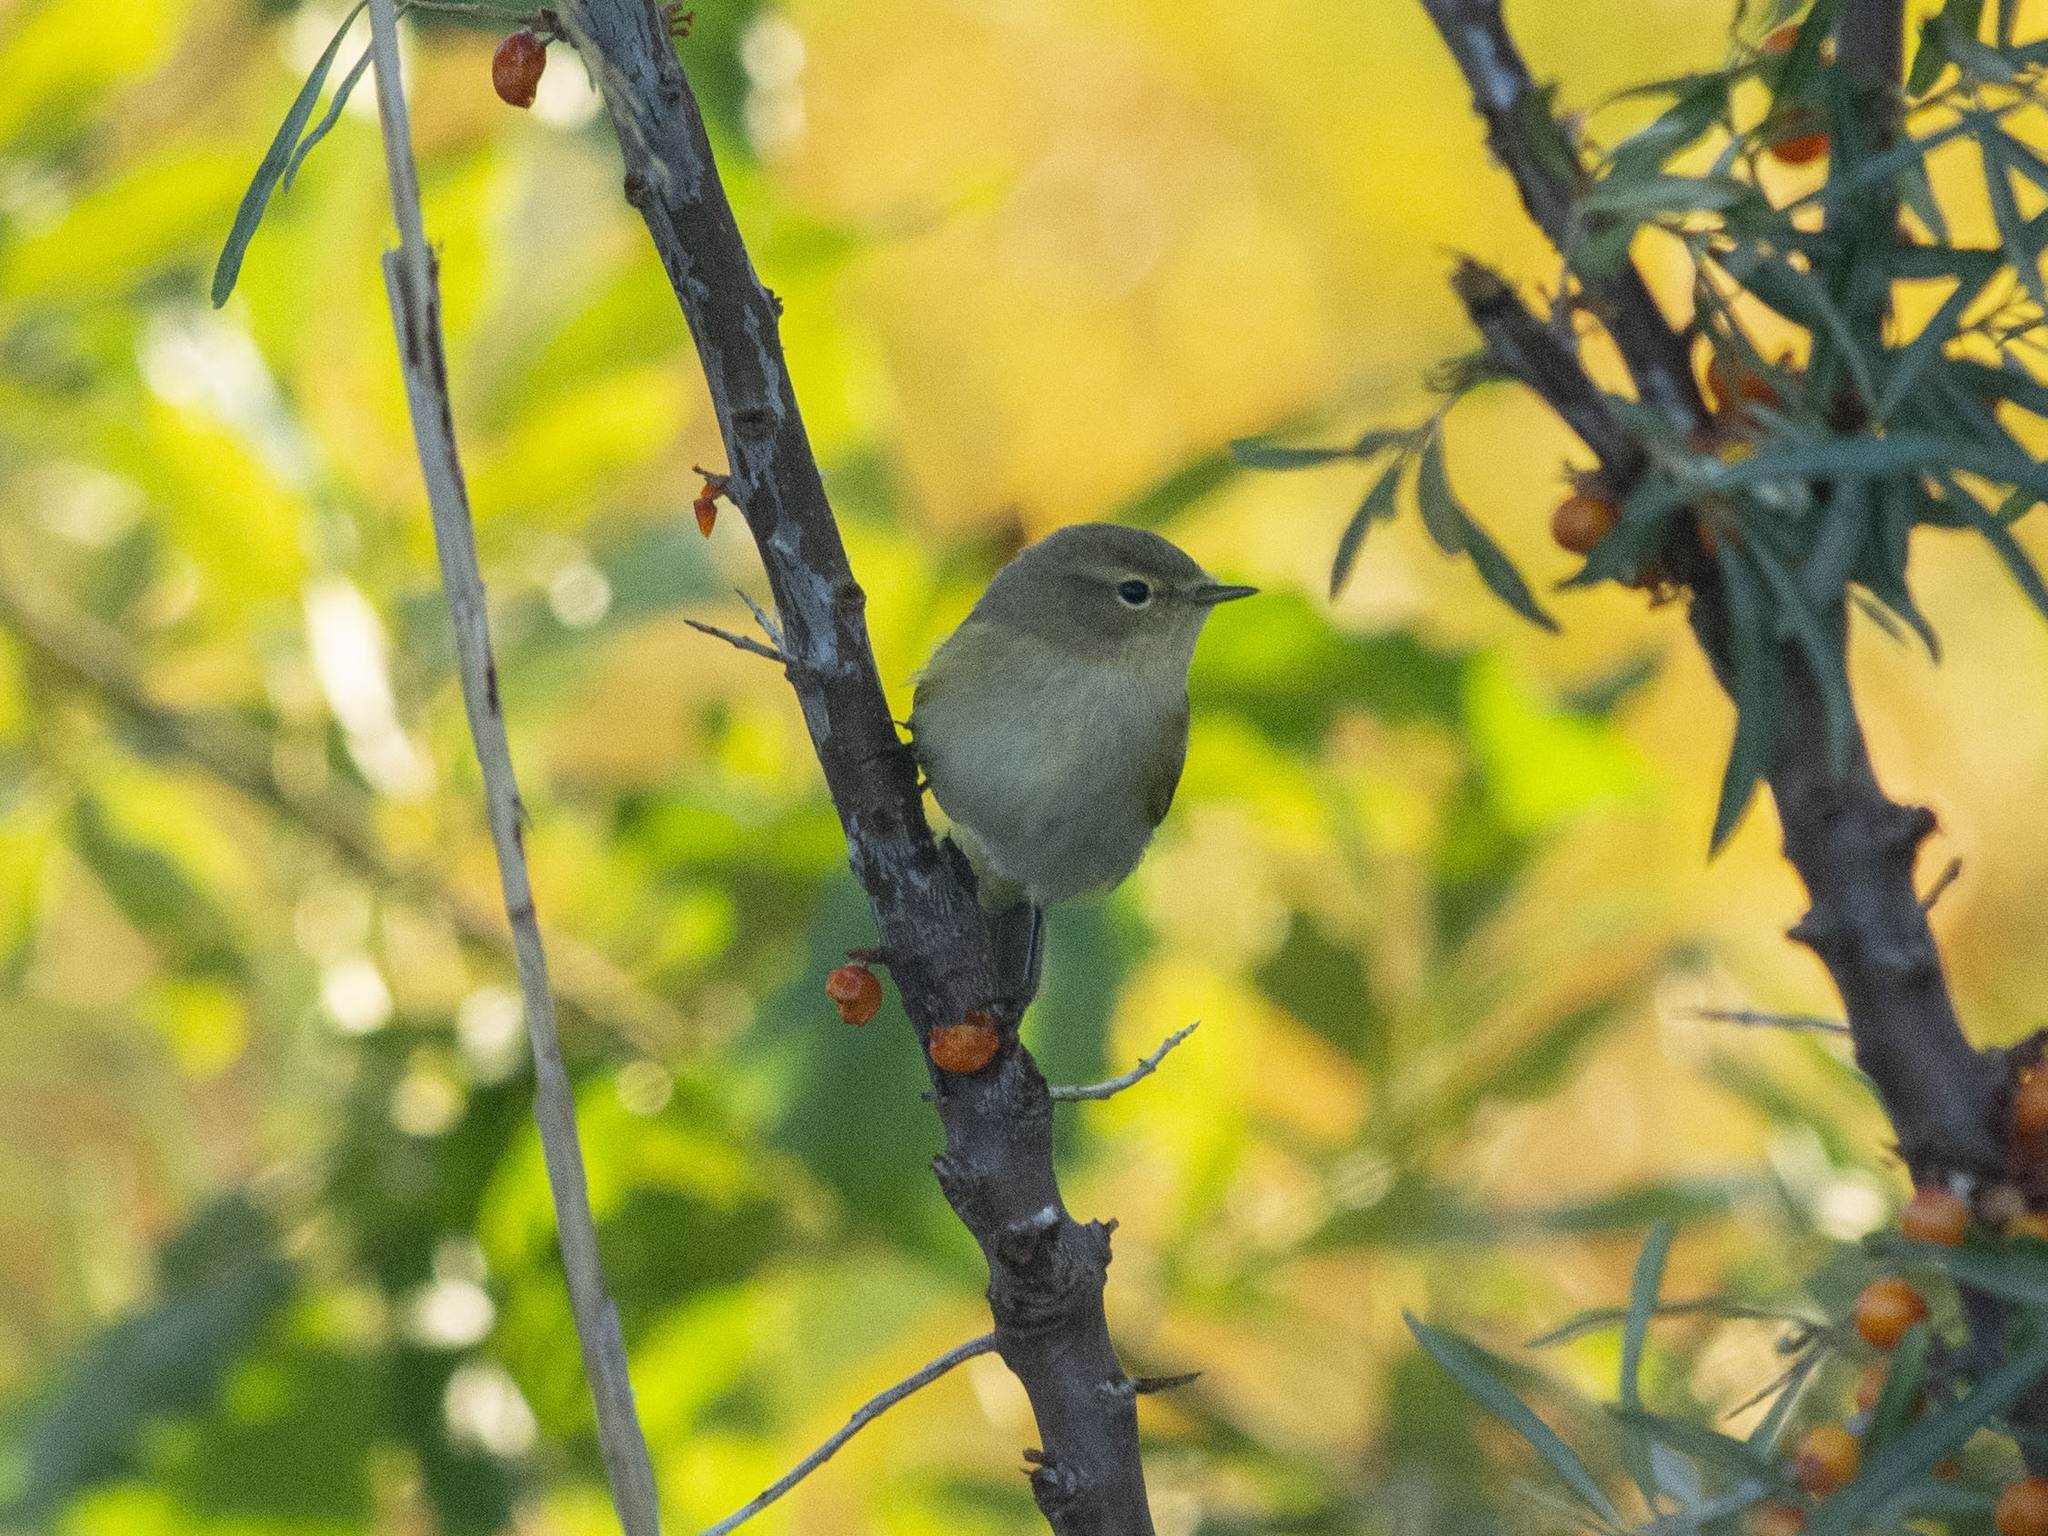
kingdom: Animalia
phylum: Chordata
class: Aves
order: Passeriformes
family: Phylloscopidae
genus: Phylloscopus
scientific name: Phylloscopus collybita
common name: Common chiffchaff
